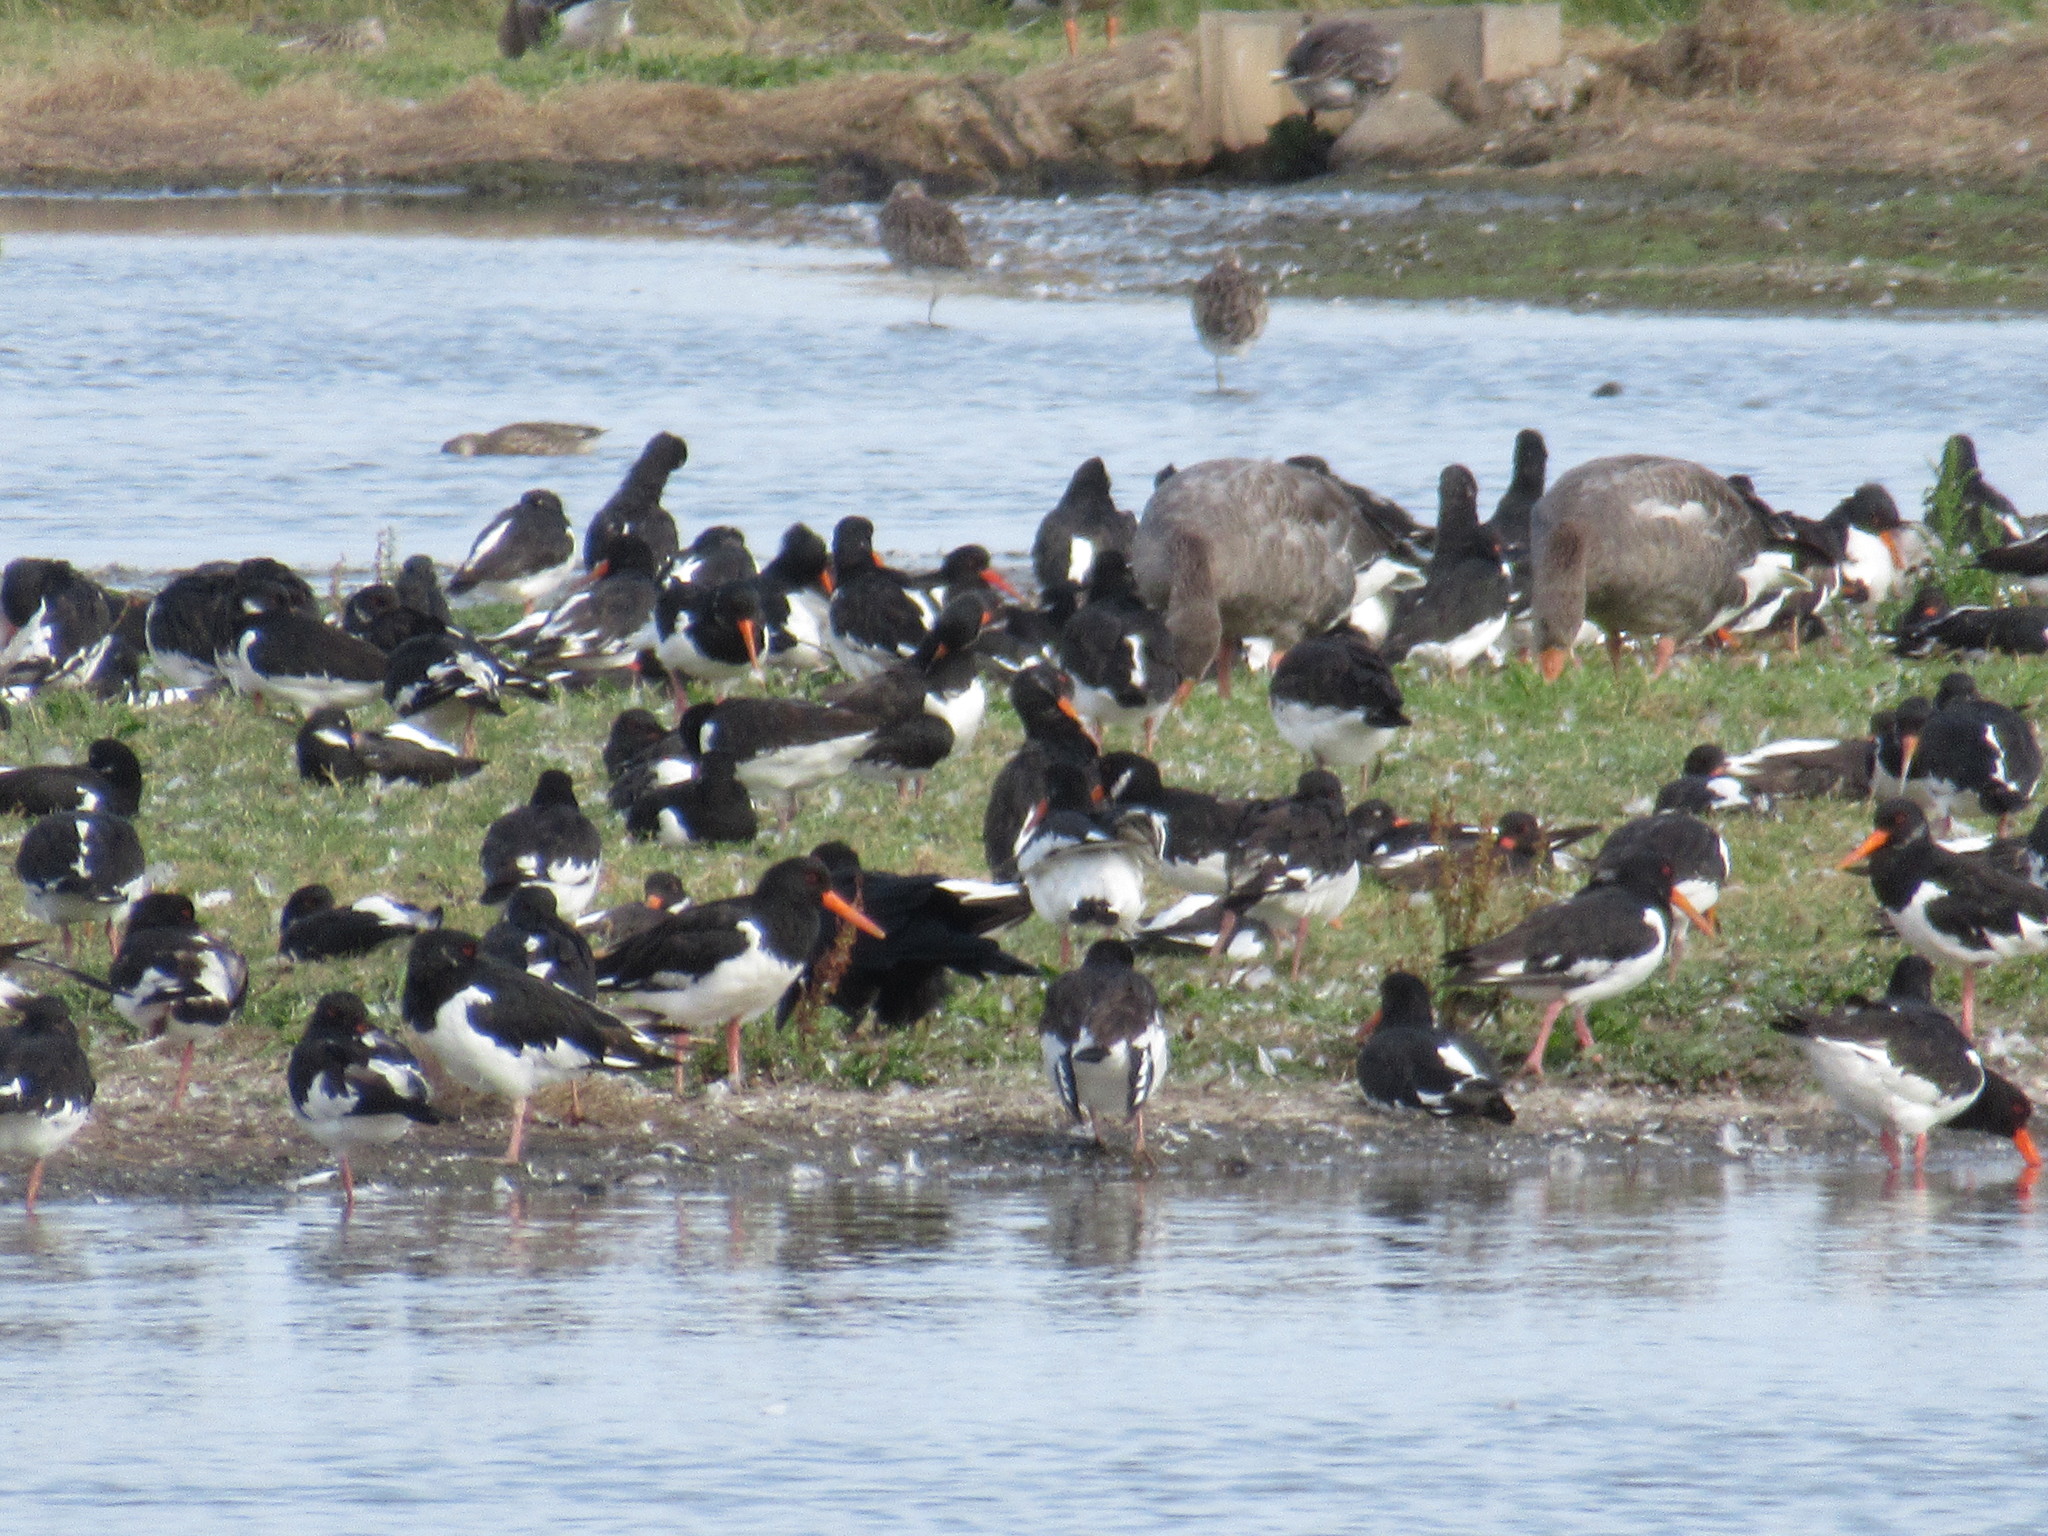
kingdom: Animalia
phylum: Chordata
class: Aves
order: Charadriiformes
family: Haematopodidae
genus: Haematopus
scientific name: Haematopus ostralegus
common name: Eurasian oystercatcher
